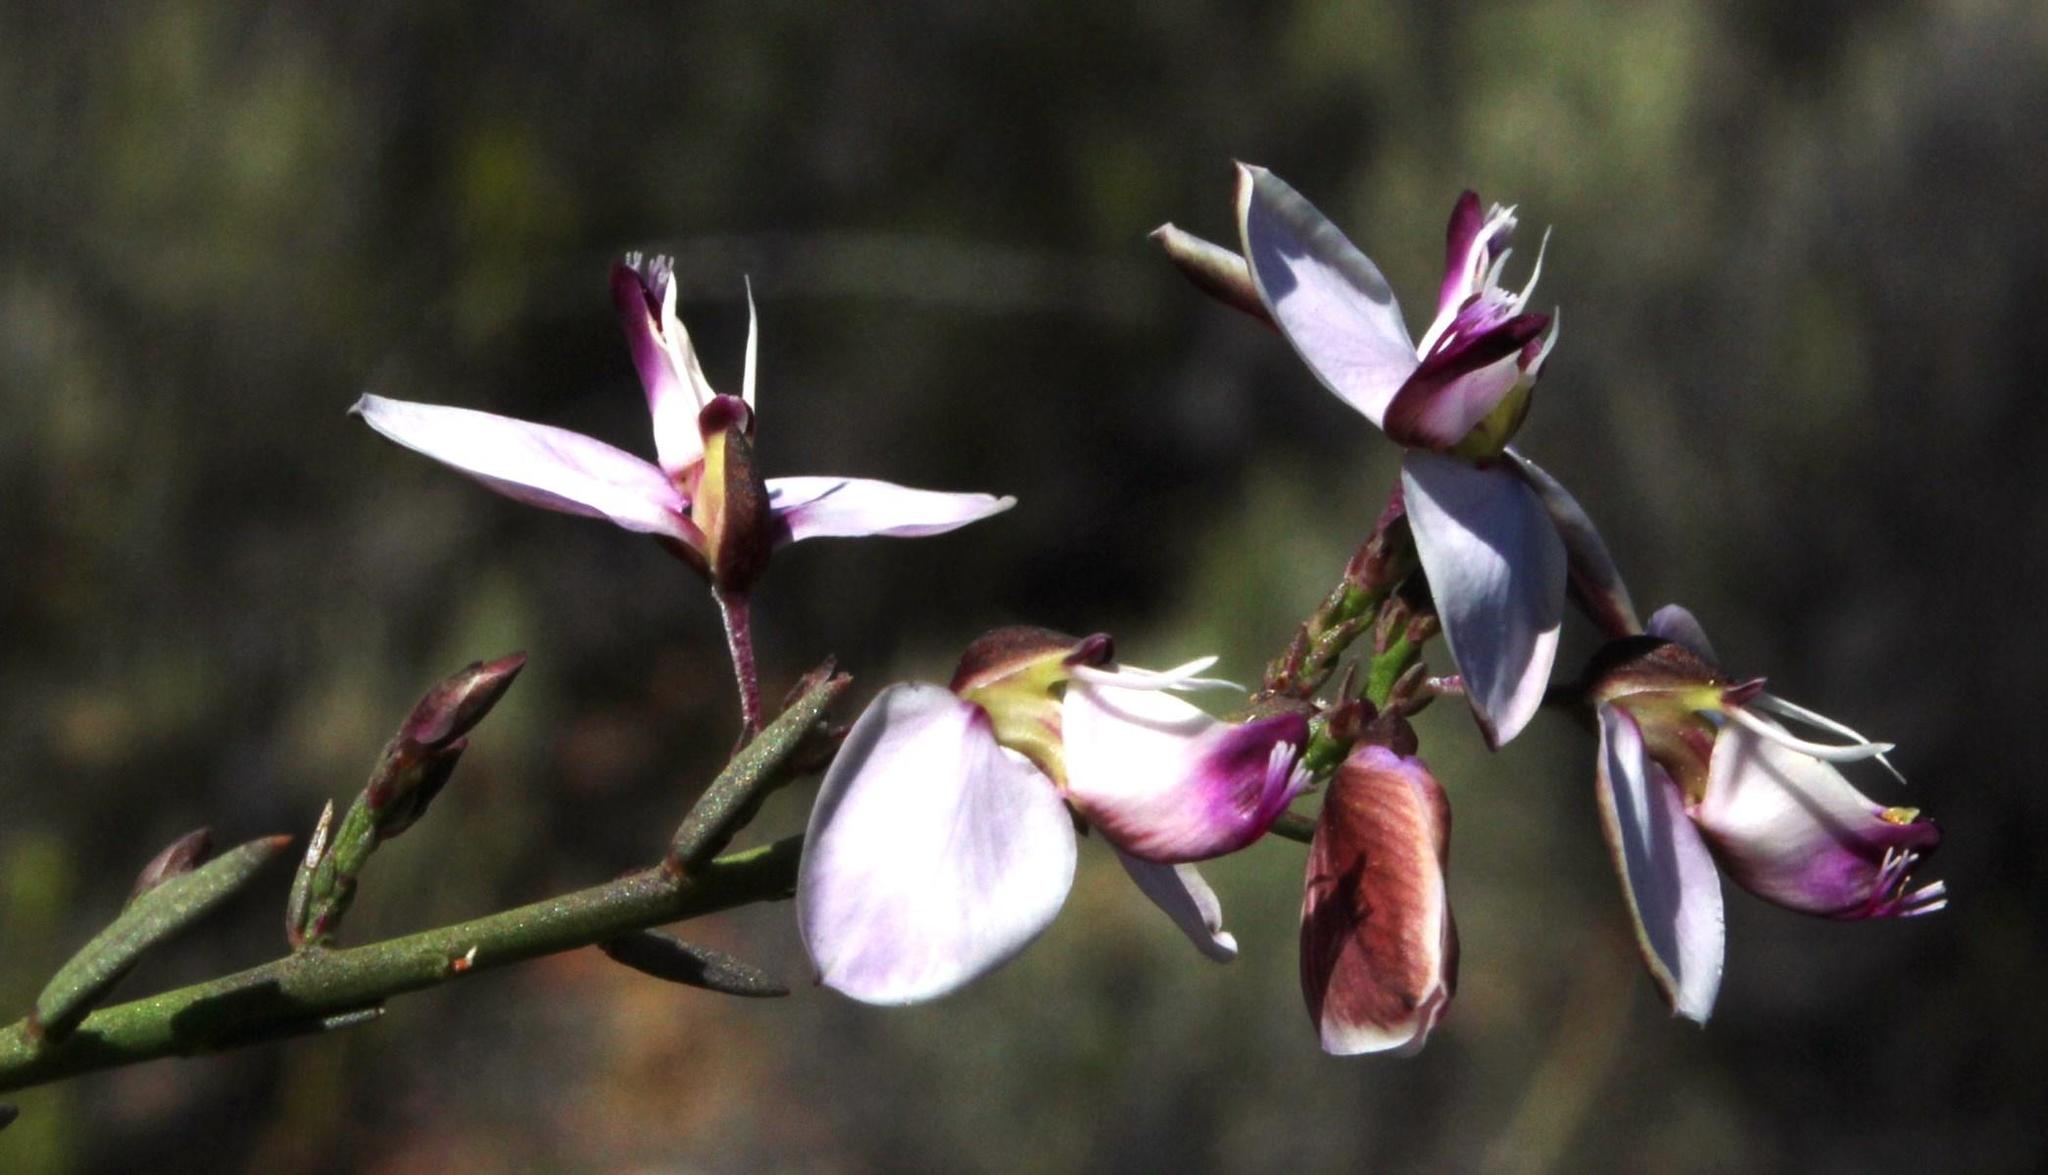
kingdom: Plantae
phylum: Tracheophyta
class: Magnoliopsida
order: Fabales
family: Polygalaceae
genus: Polygala
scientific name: Polygala microlopha
